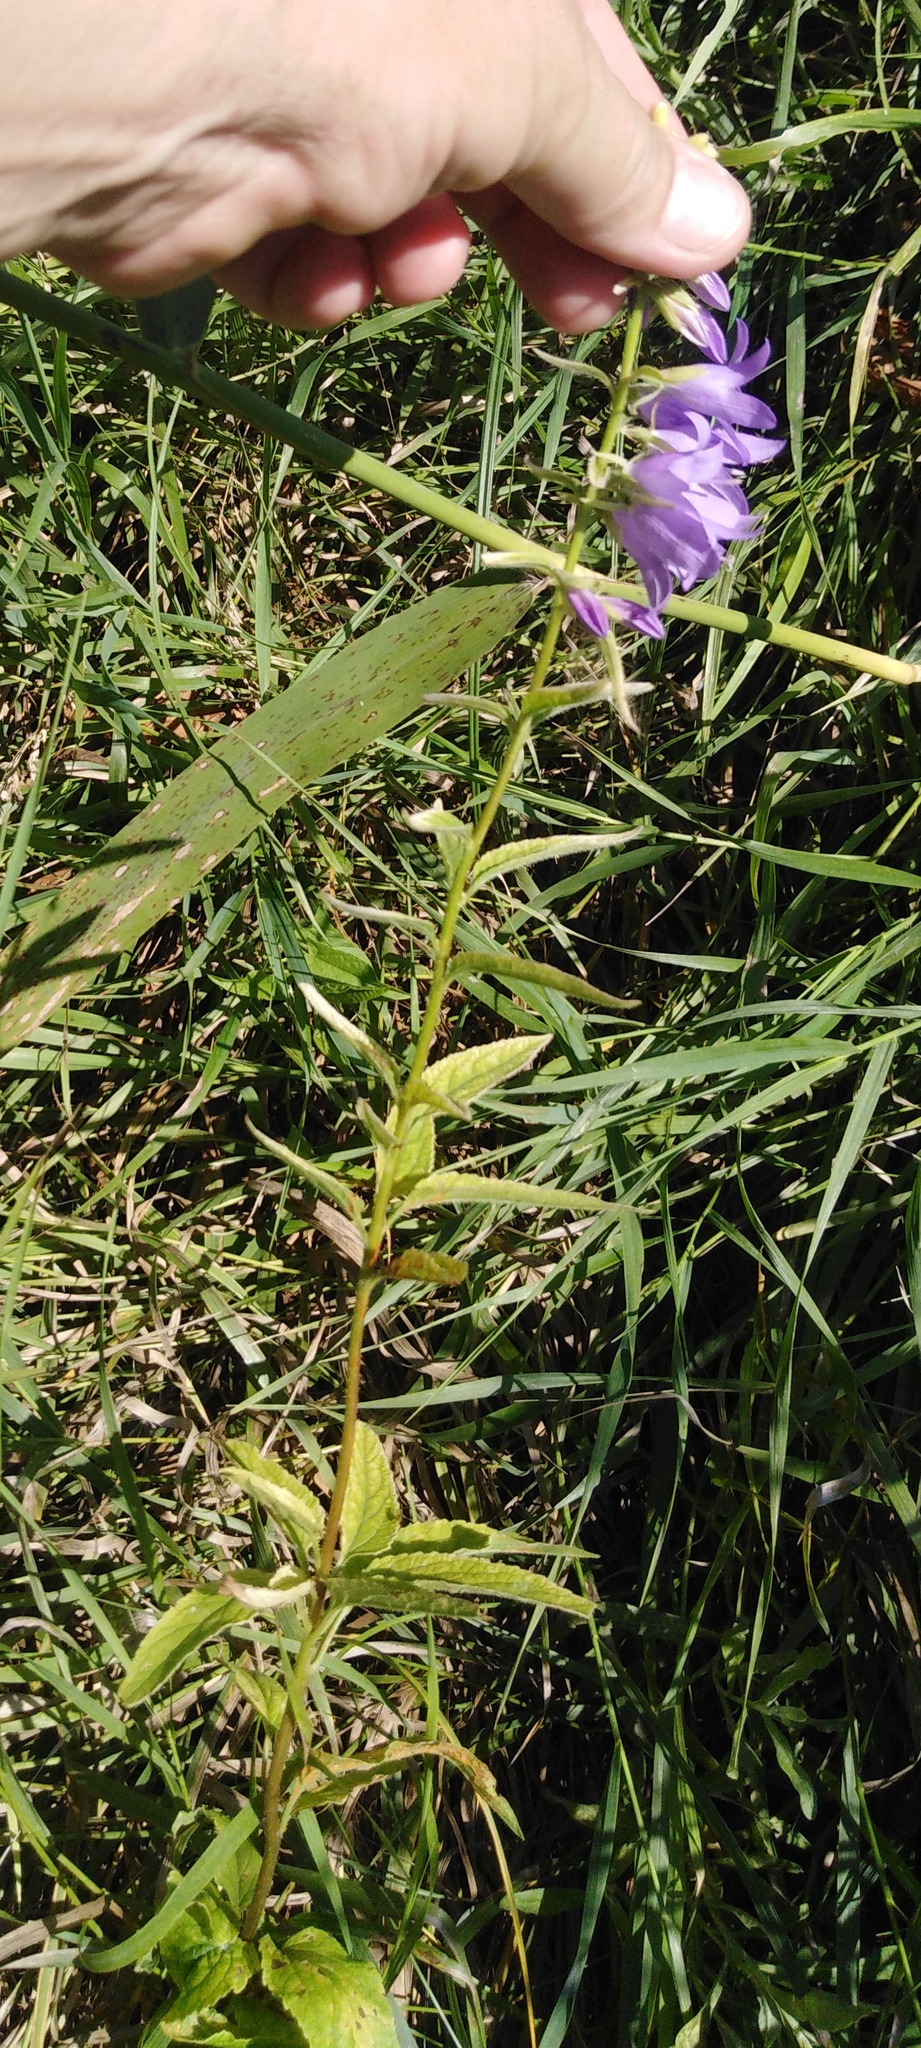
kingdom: Plantae
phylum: Tracheophyta
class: Magnoliopsida
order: Asterales
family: Campanulaceae
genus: Campanula
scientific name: Campanula rapunculoides
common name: Creeping bellflower
